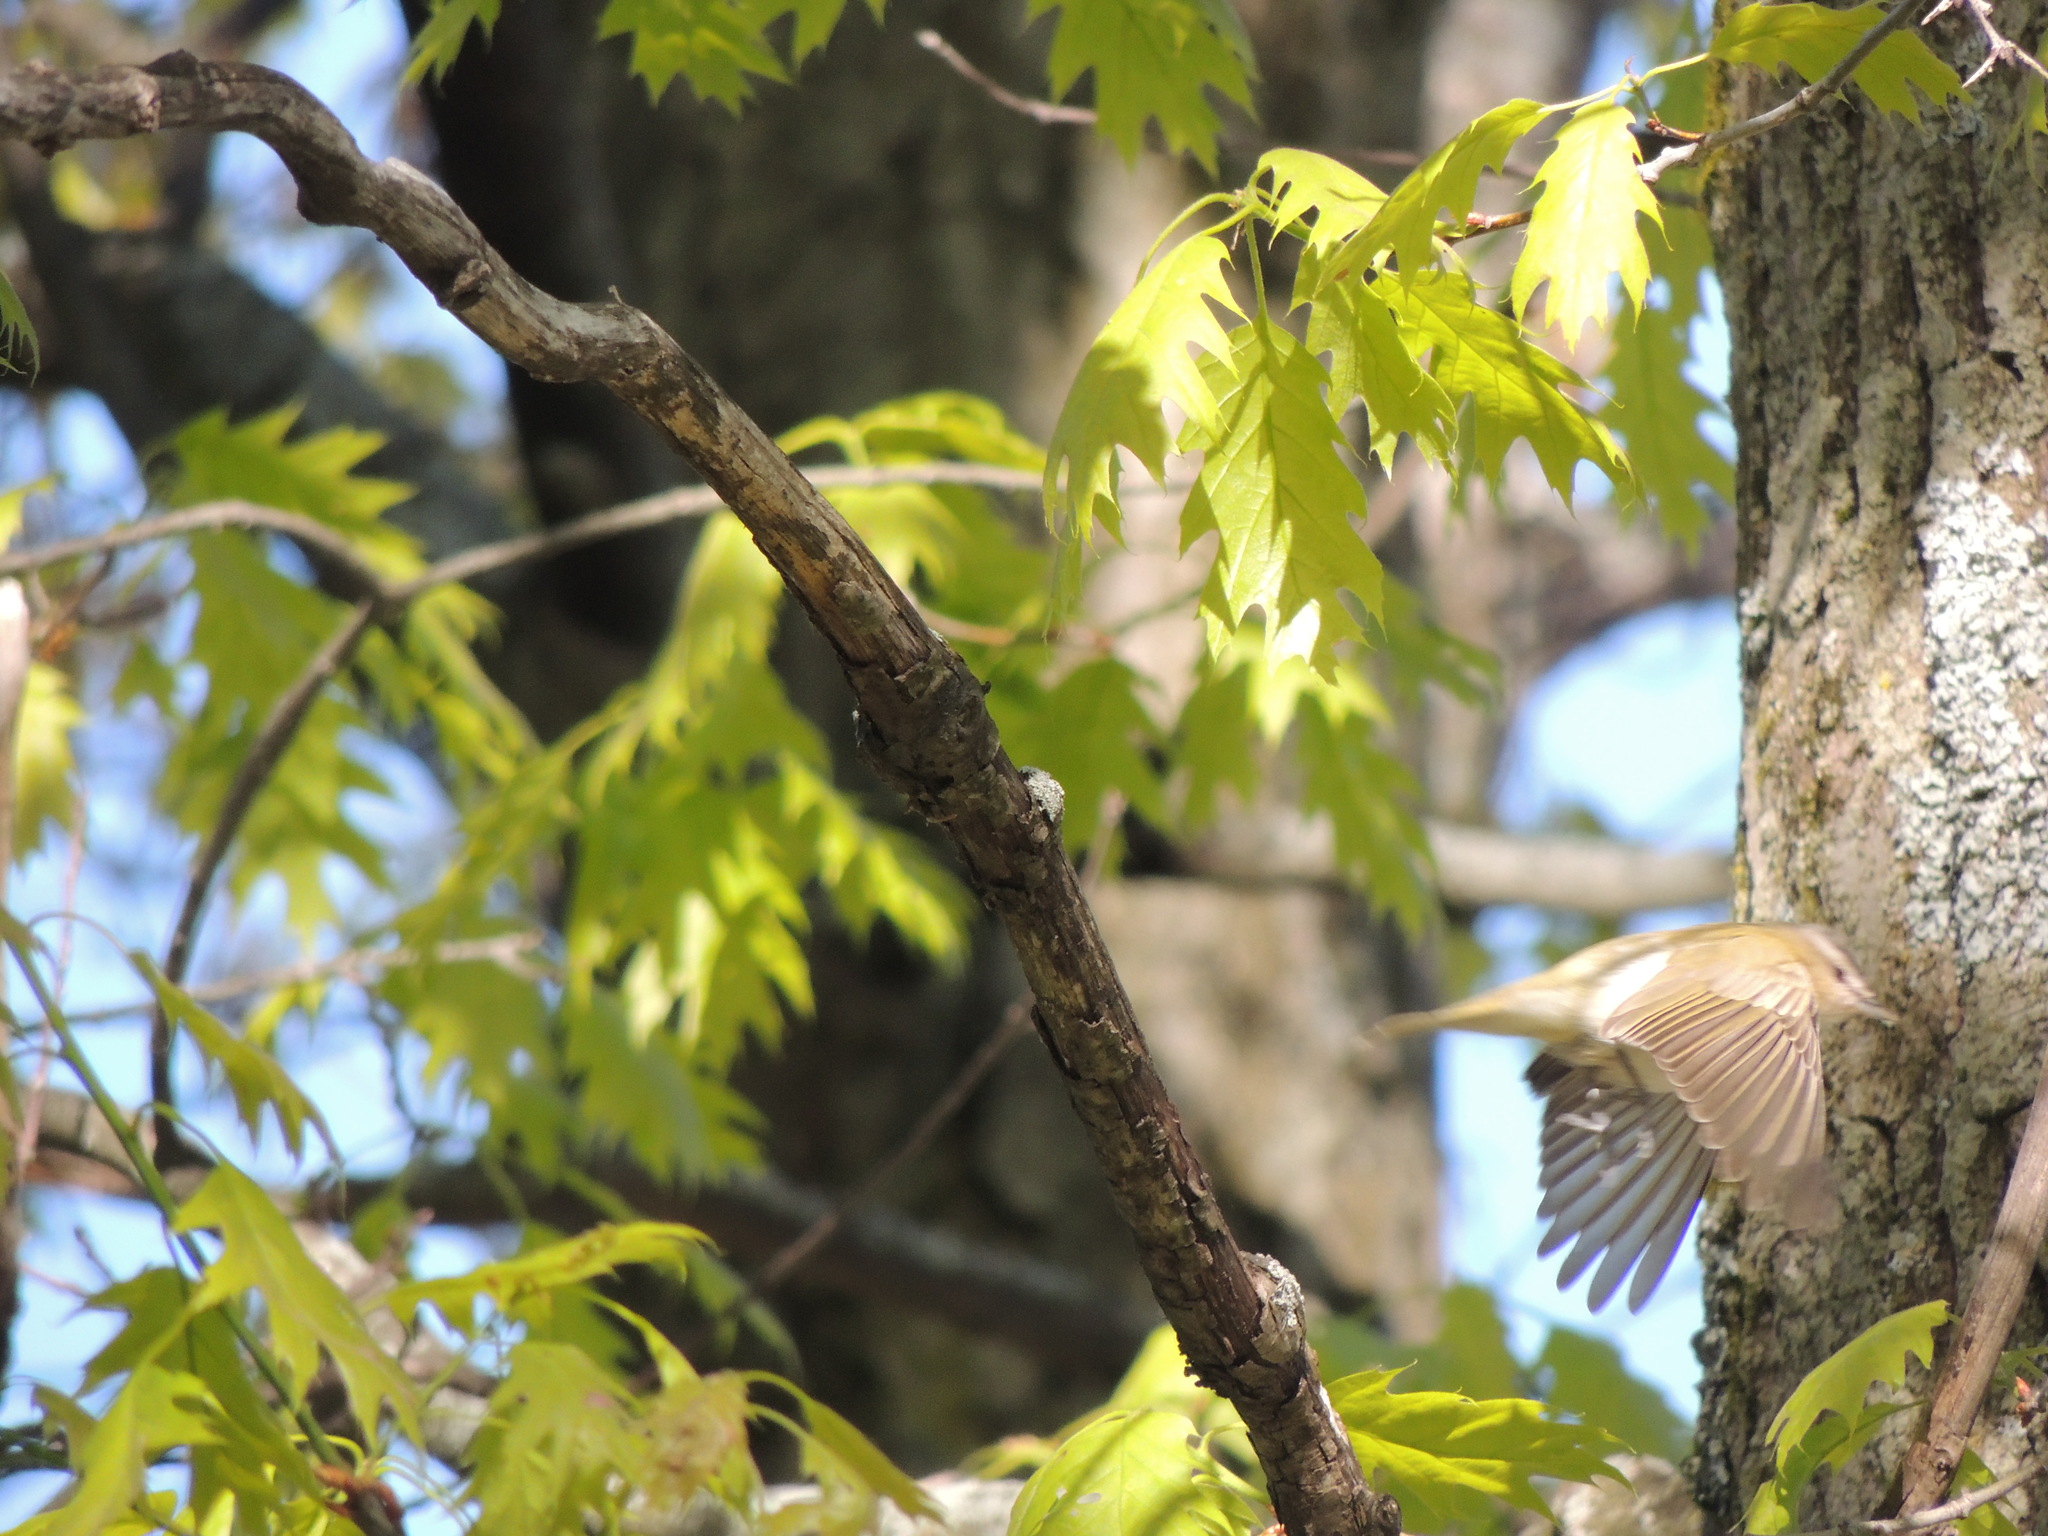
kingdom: Animalia
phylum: Chordata
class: Aves
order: Passeriformes
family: Vireonidae
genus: Vireo
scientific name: Vireo olivaceus
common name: Red-eyed vireo
